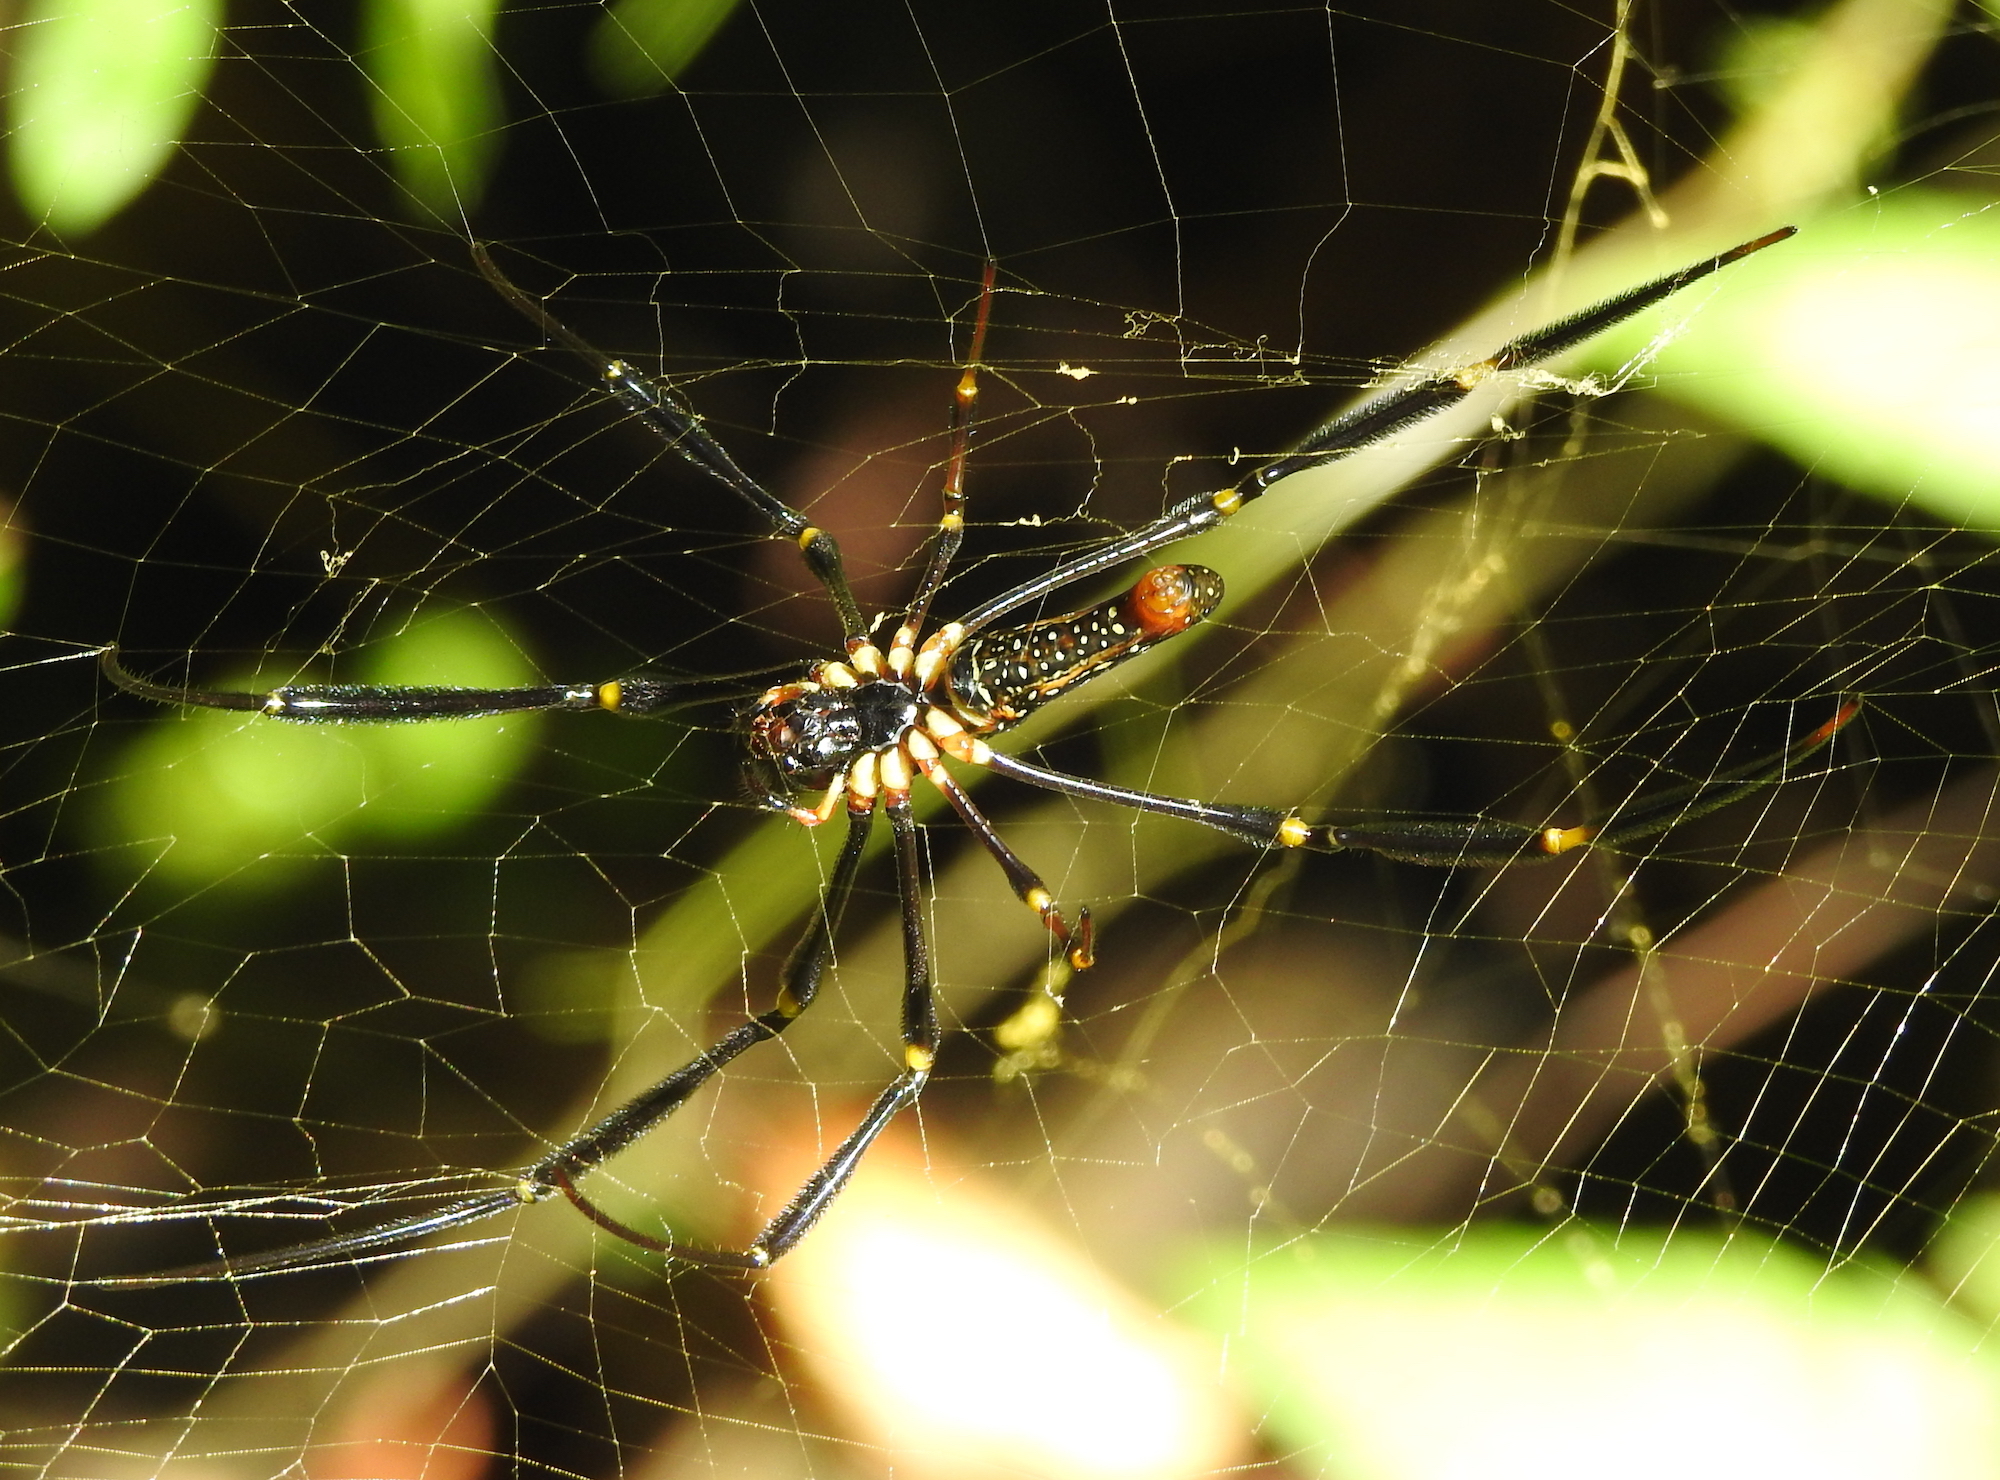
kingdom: Animalia
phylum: Arthropoda
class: Arachnida
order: Araneae
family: Araneidae
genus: Nephila
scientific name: Nephila pilipes
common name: Giant golden orb weaver
